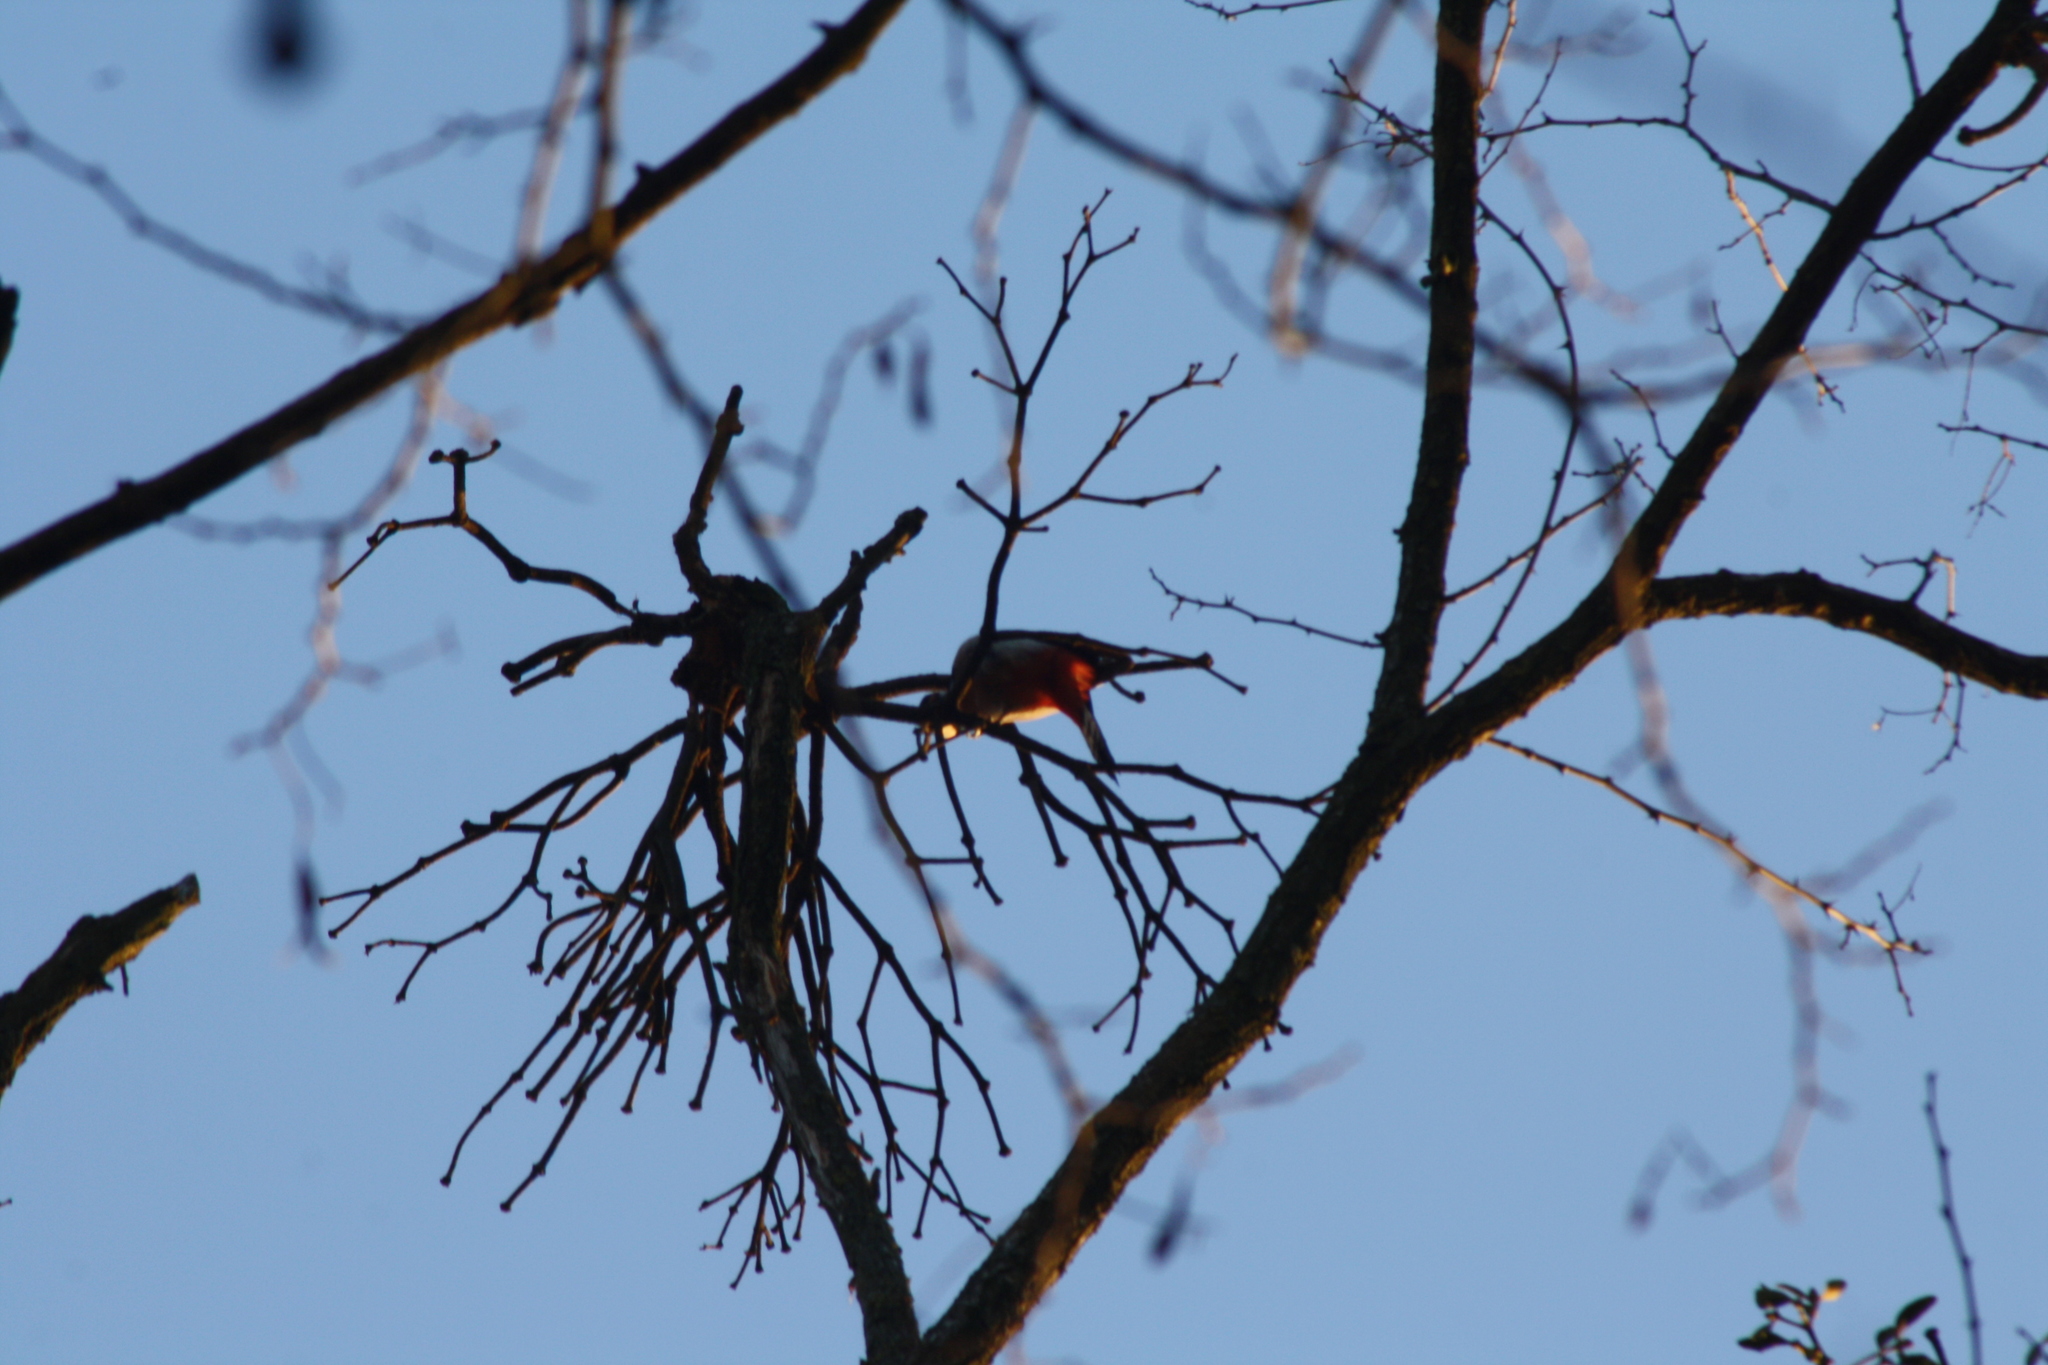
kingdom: Animalia
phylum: Chordata
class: Aves
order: Piciformes
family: Picidae
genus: Dendrocopos
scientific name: Dendrocopos major
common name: Great spotted woodpecker
